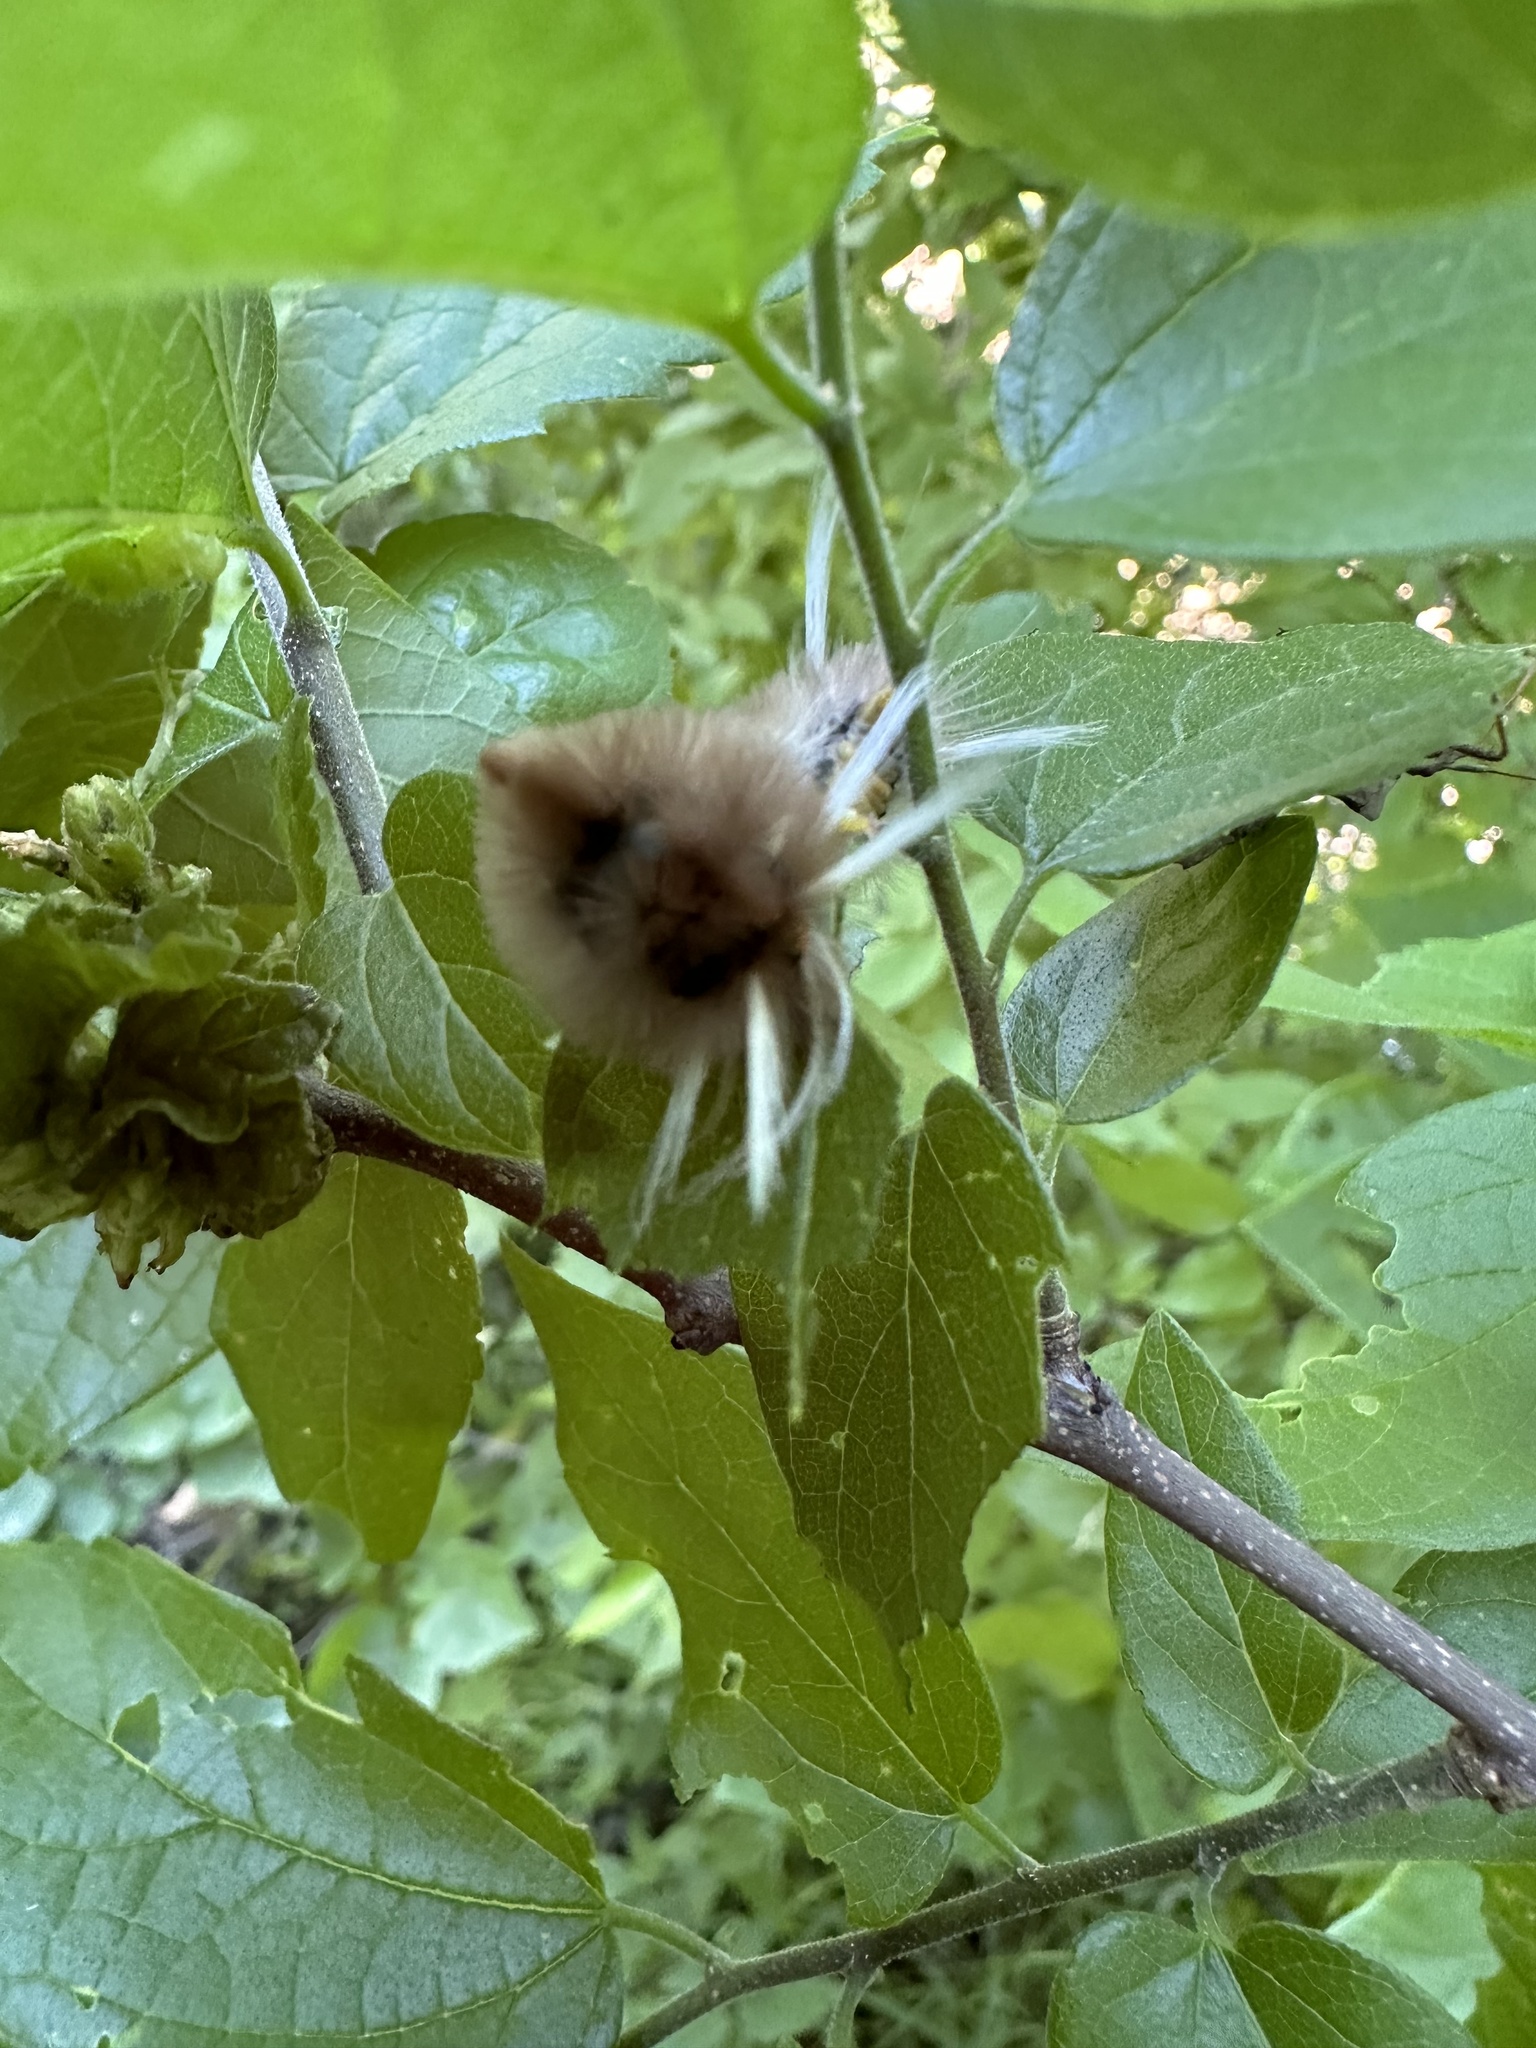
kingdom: Animalia
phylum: Arthropoda
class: Insecta
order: Lepidoptera
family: Erebidae
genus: Halysidota
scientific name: Halysidota schausi
